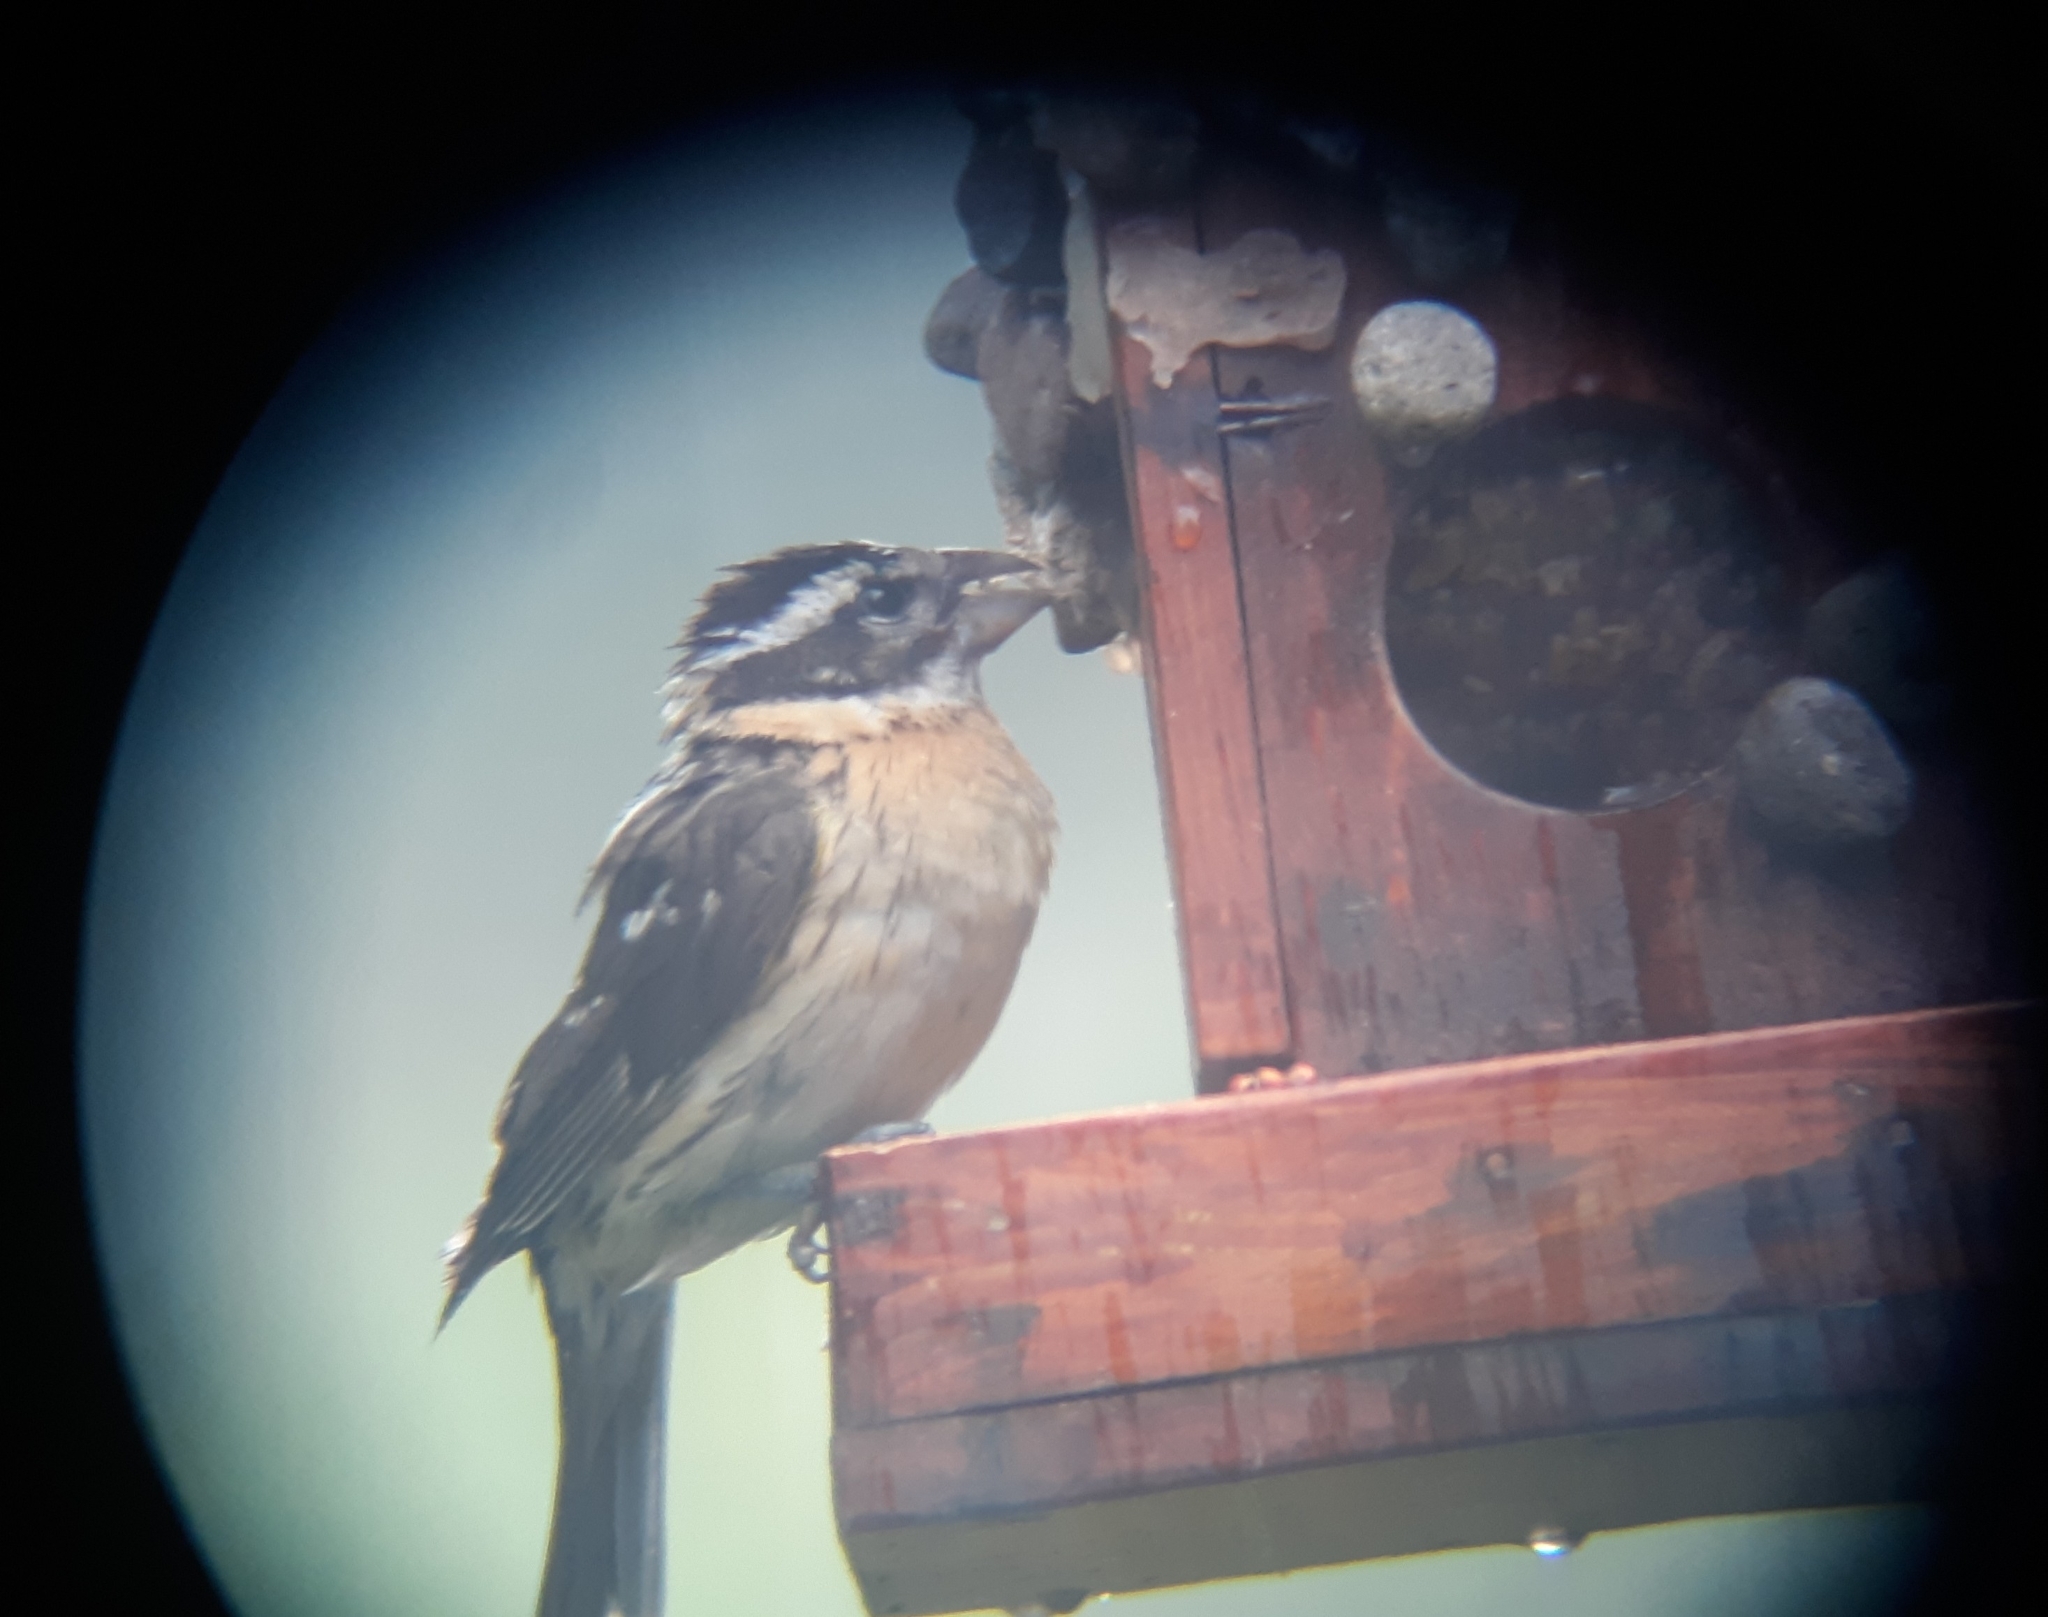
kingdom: Animalia
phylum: Chordata
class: Aves
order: Passeriformes
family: Cardinalidae
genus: Pheucticus
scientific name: Pheucticus melanocephalus
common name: Black-headed grosbeak
